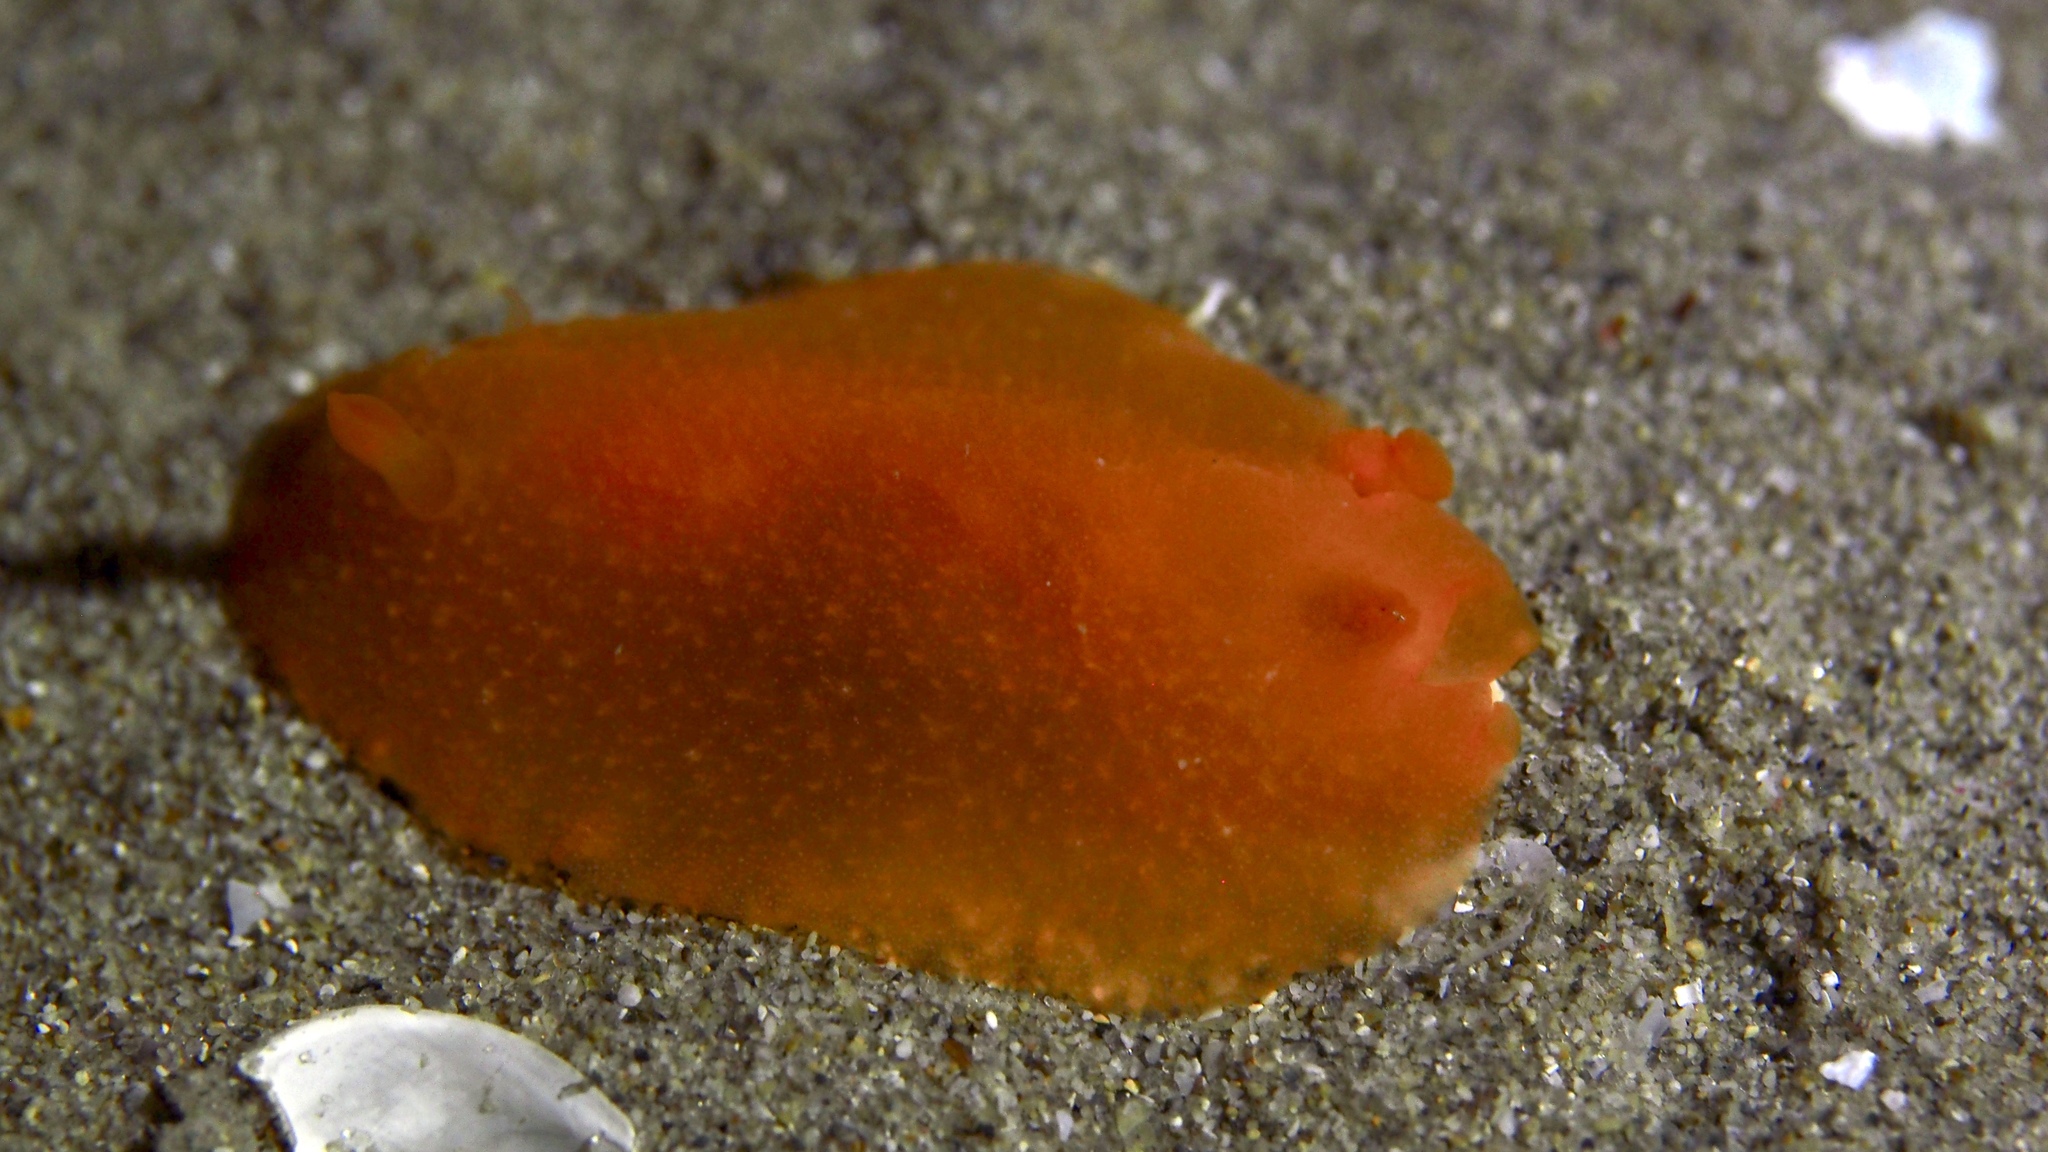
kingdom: Animalia
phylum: Mollusca
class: Gastropoda
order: Nudibranchia
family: Dendrodorididae
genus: Doriopsilla
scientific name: Doriopsilla carneola
